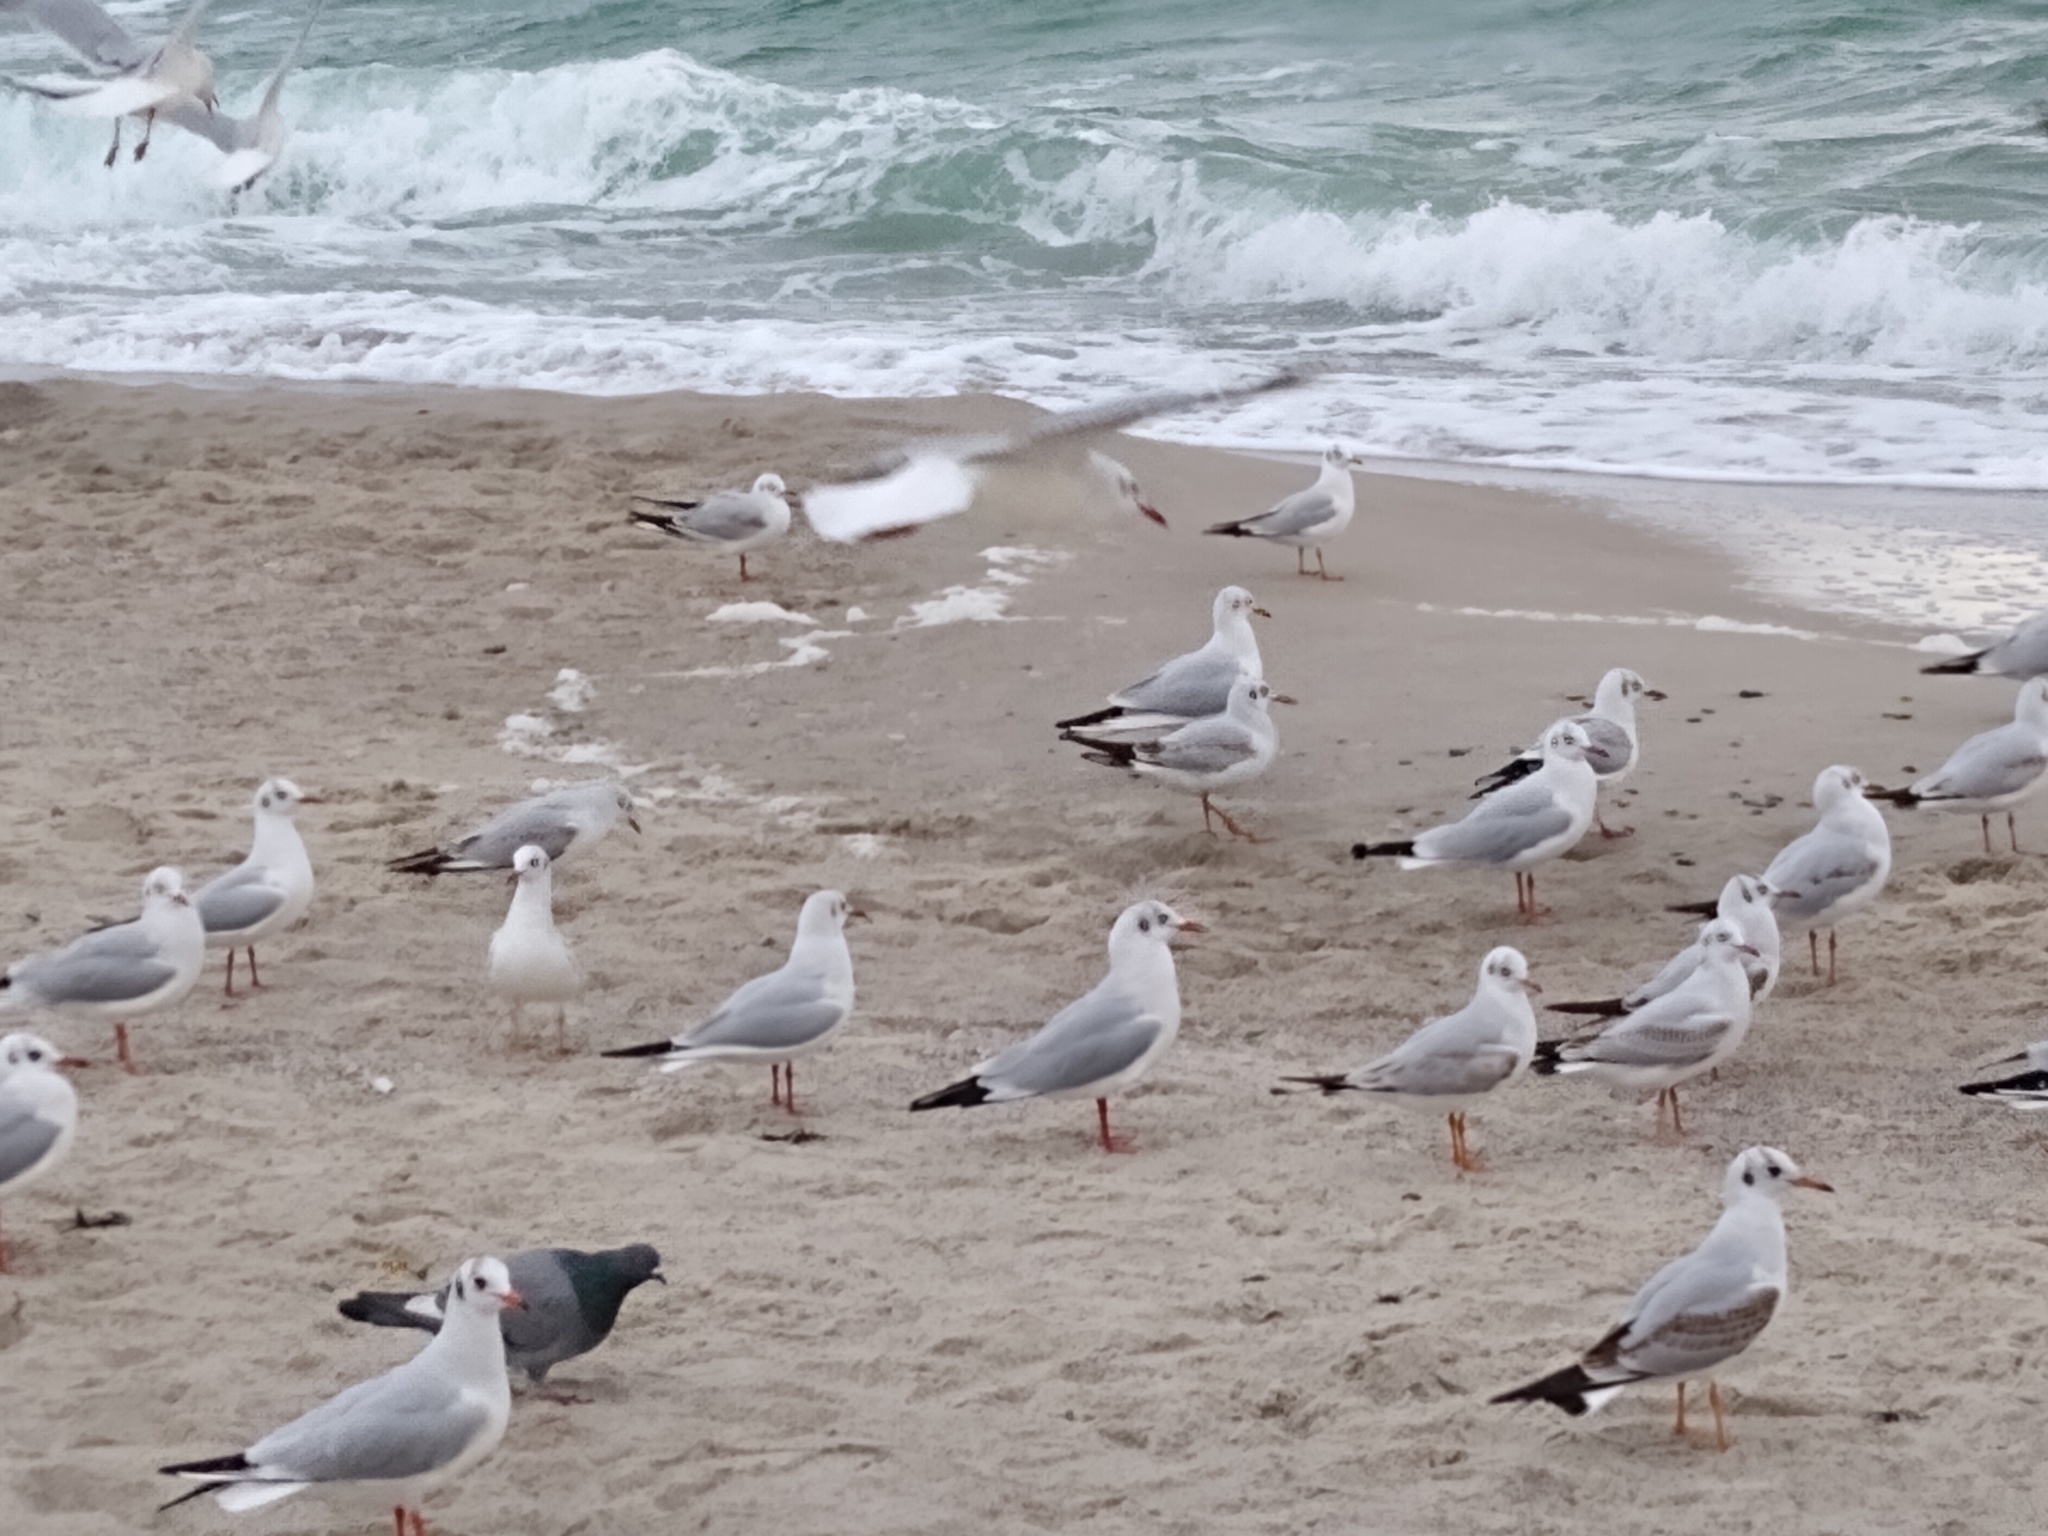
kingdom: Animalia
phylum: Chordata
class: Aves
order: Charadriiformes
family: Laridae
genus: Chroicocephalus
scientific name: Chroicocephalus ridibundus
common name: Black-headed gull
